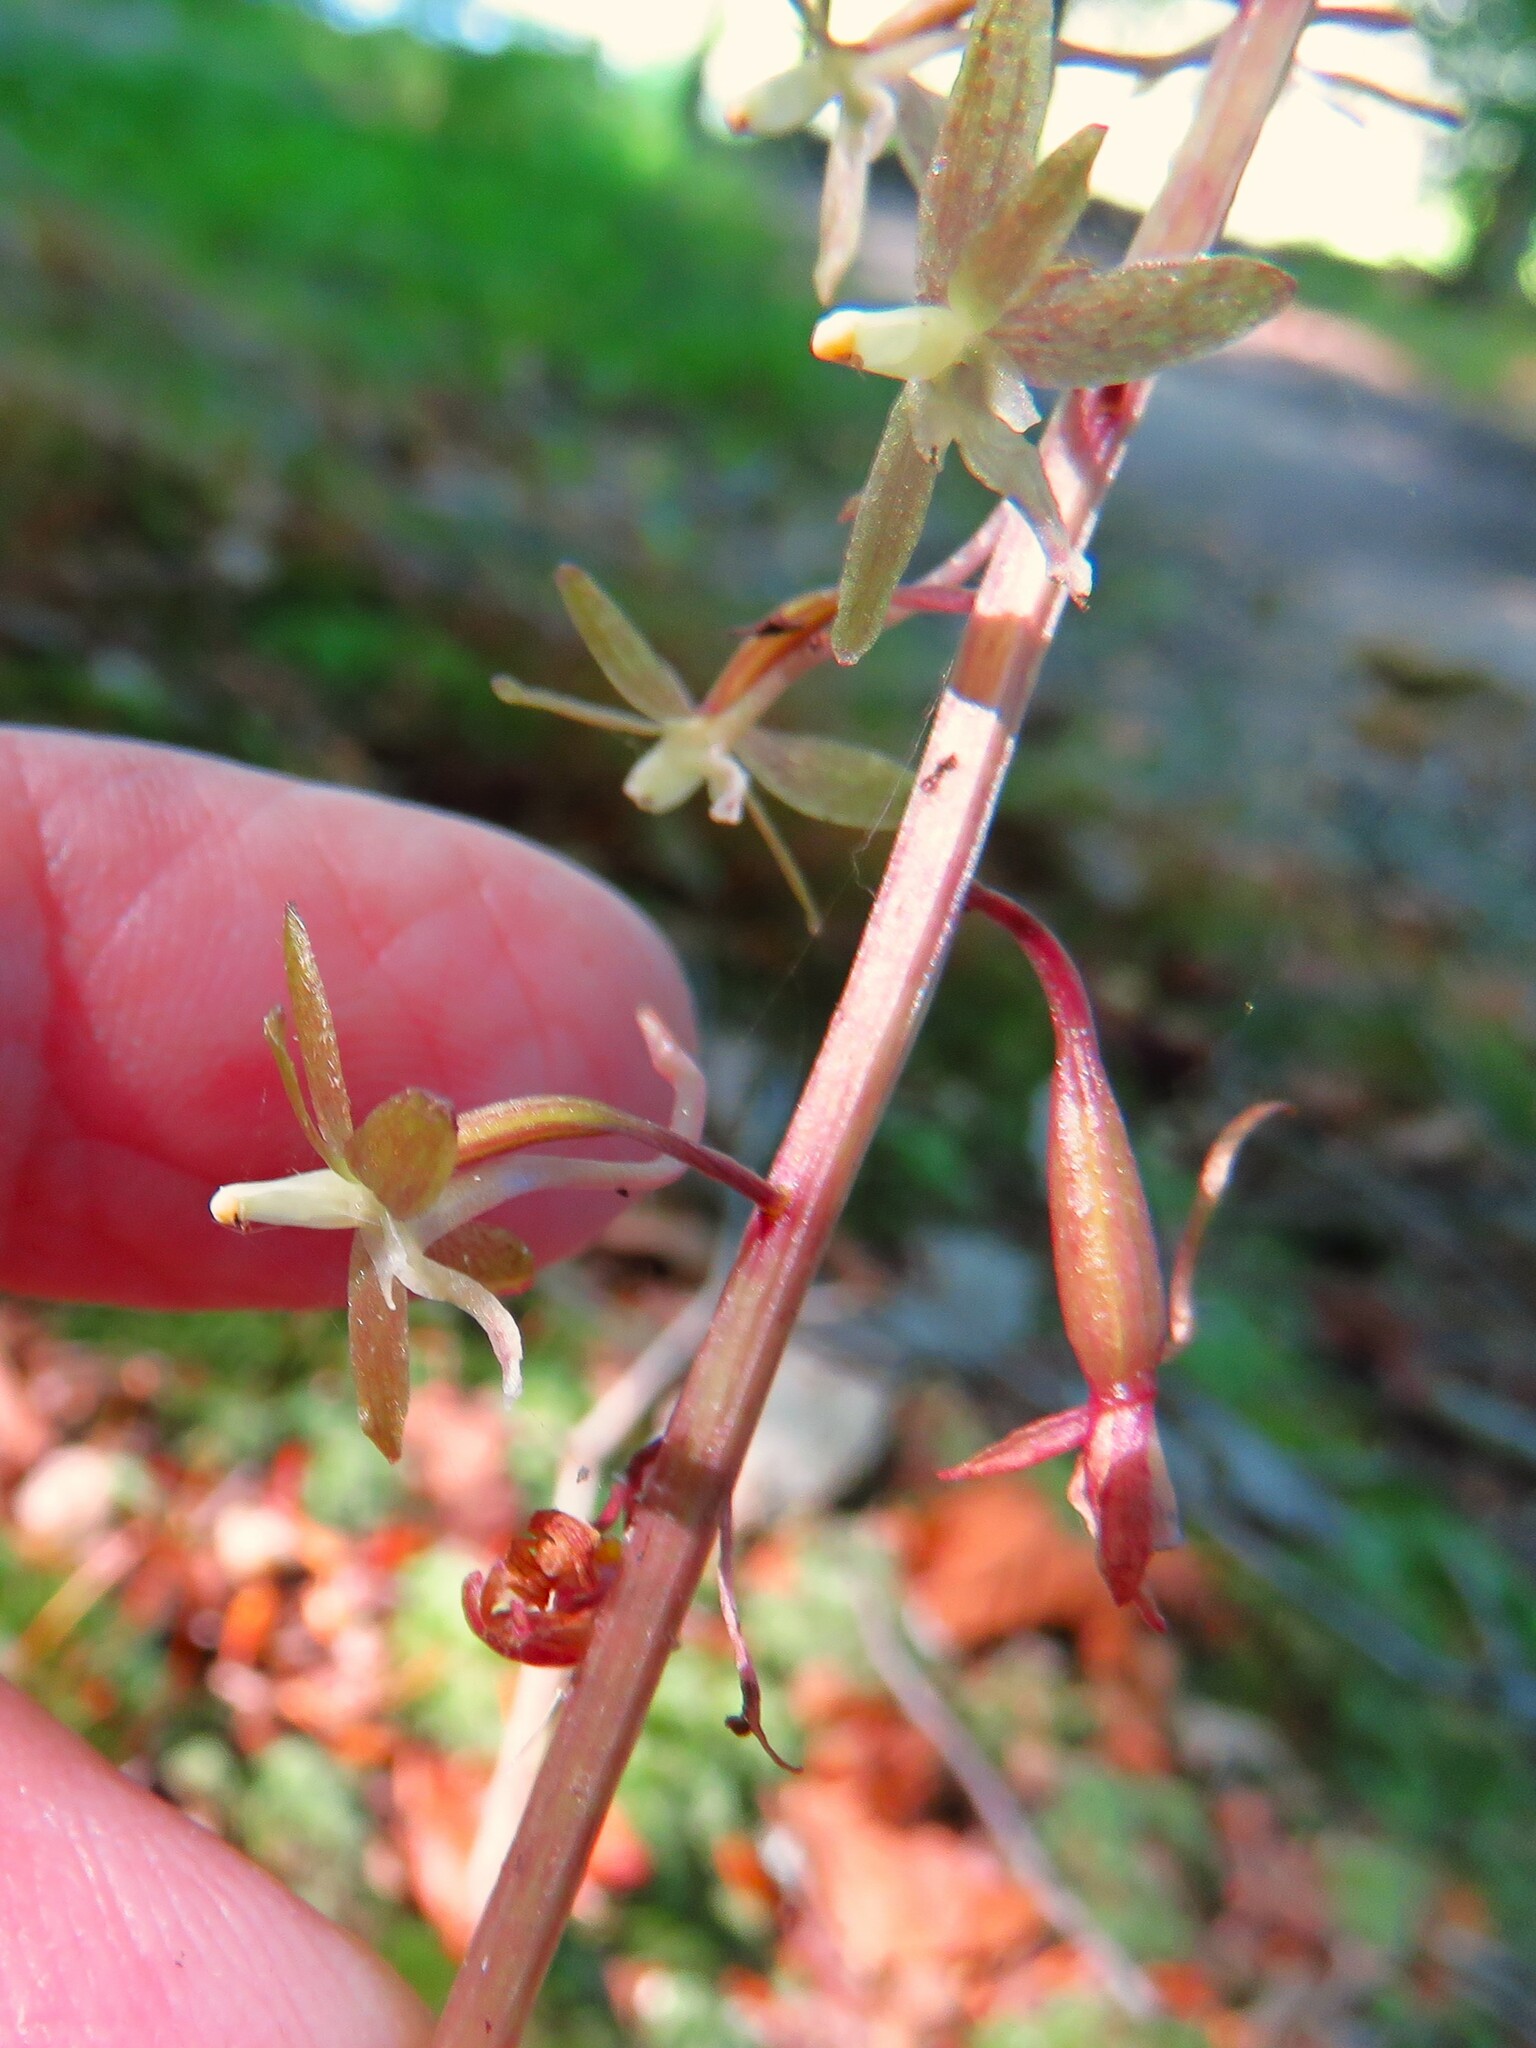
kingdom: Plantae
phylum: Tracheophyta
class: Liliopsida
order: Asparagales
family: Orchidaceae
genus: Tipularia
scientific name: Tipularia discolor
